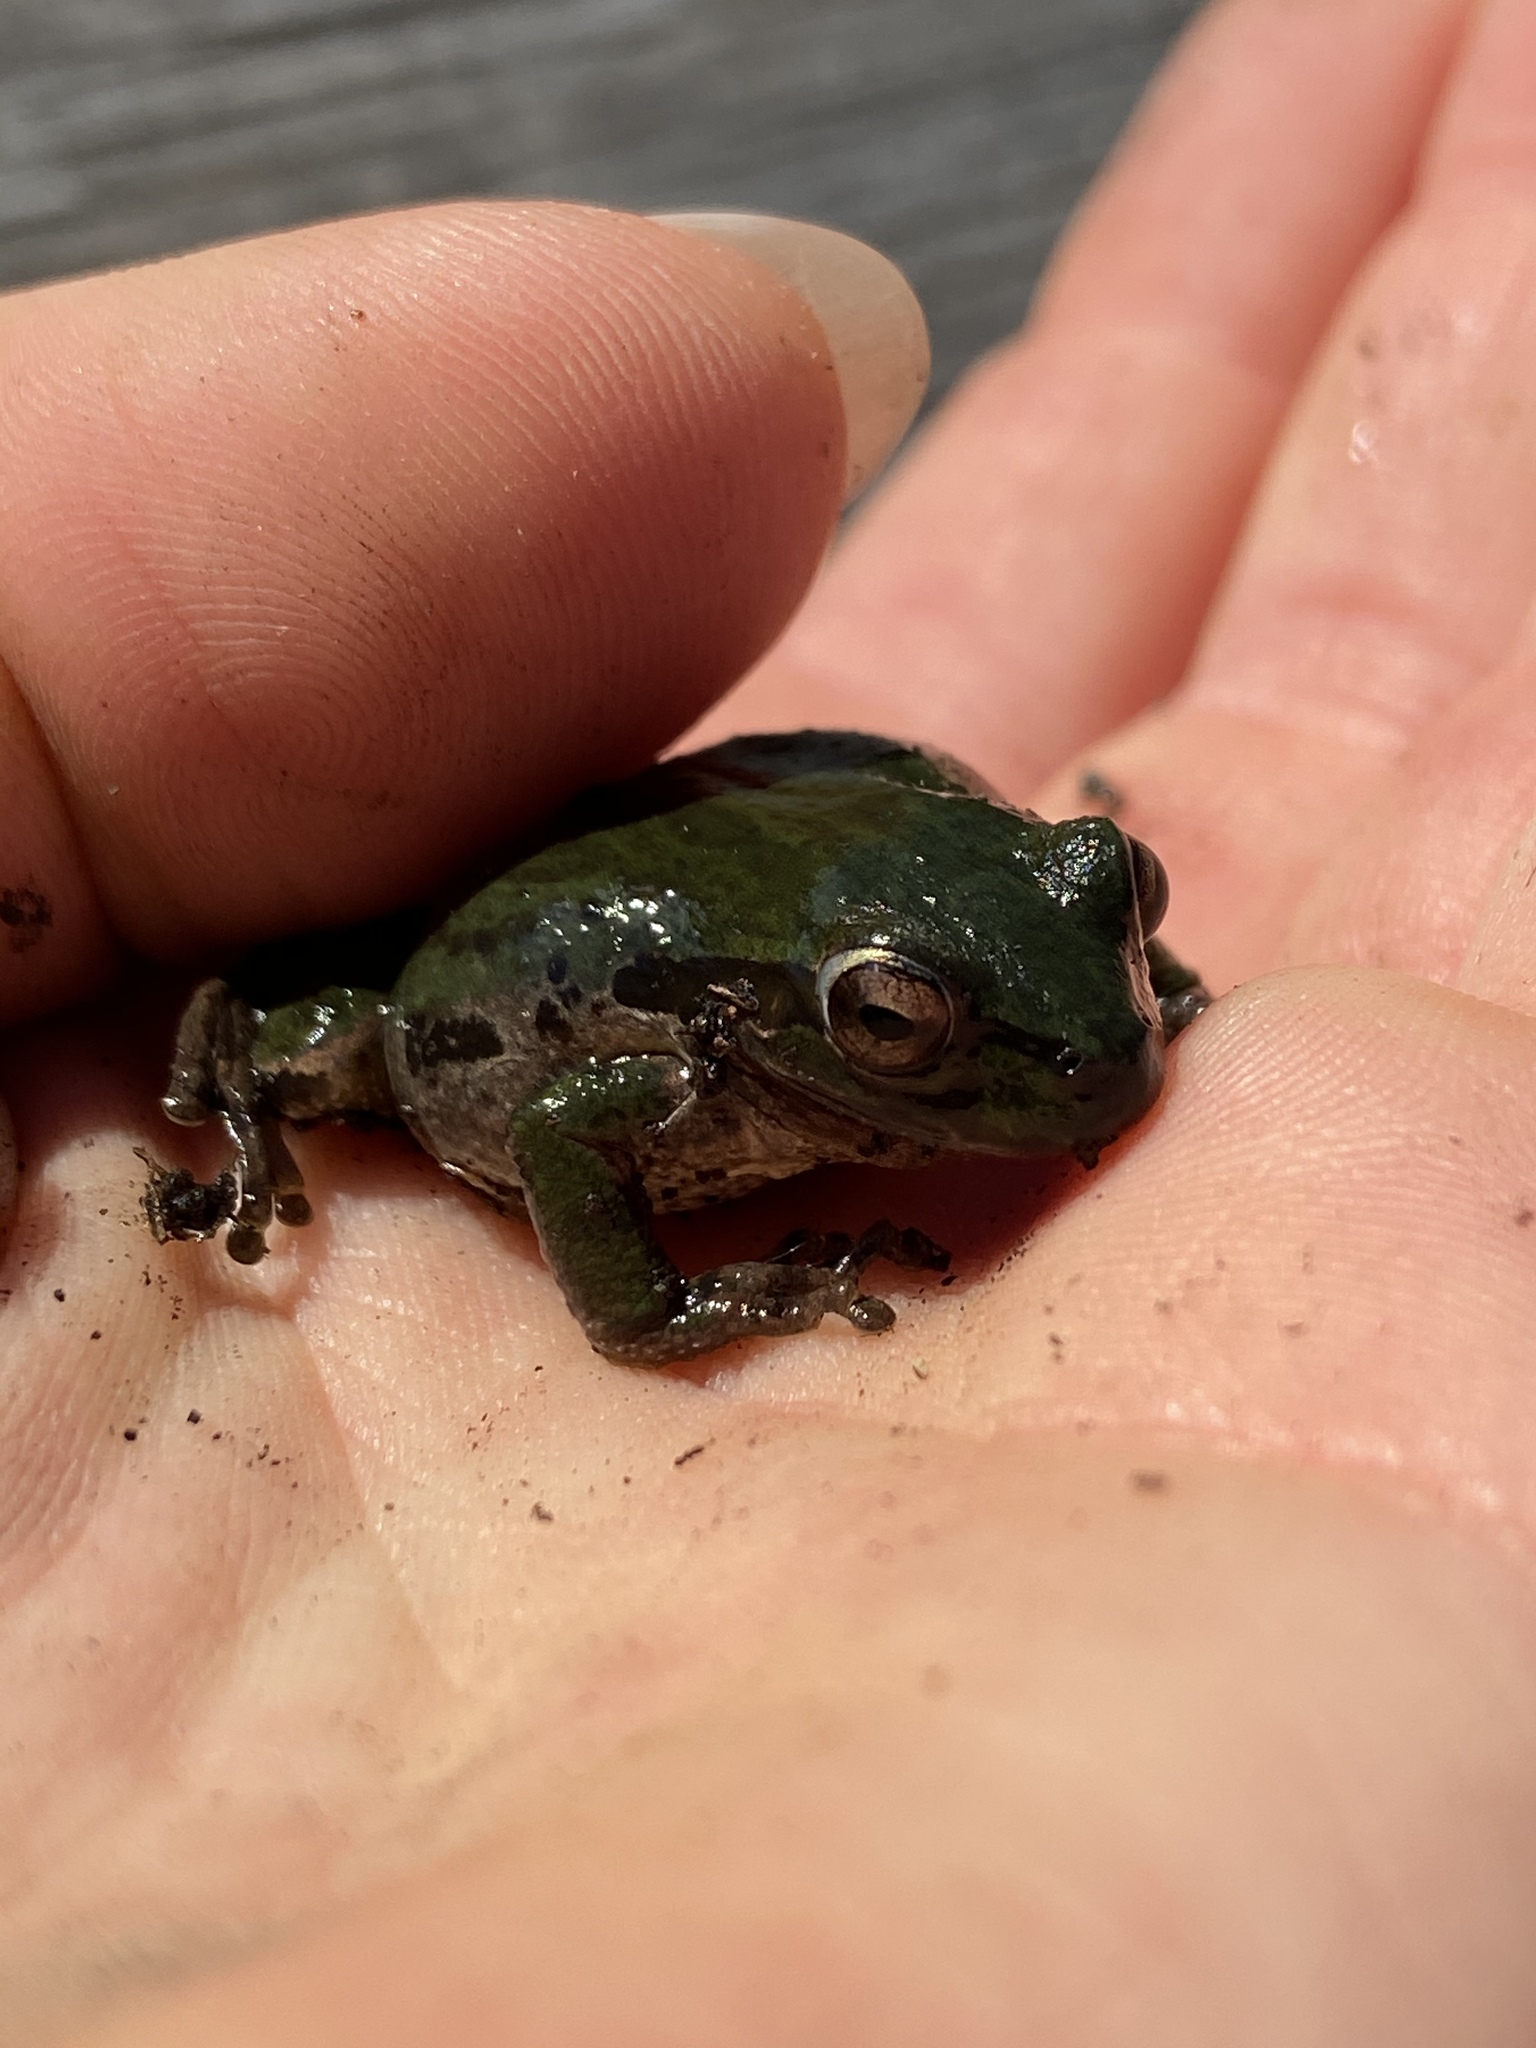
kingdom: Animalia
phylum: Chordata
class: Amphibia
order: Anura
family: Hylidae
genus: Pseudacris
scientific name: Pseudacris regilla
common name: Pacific chorus frog
